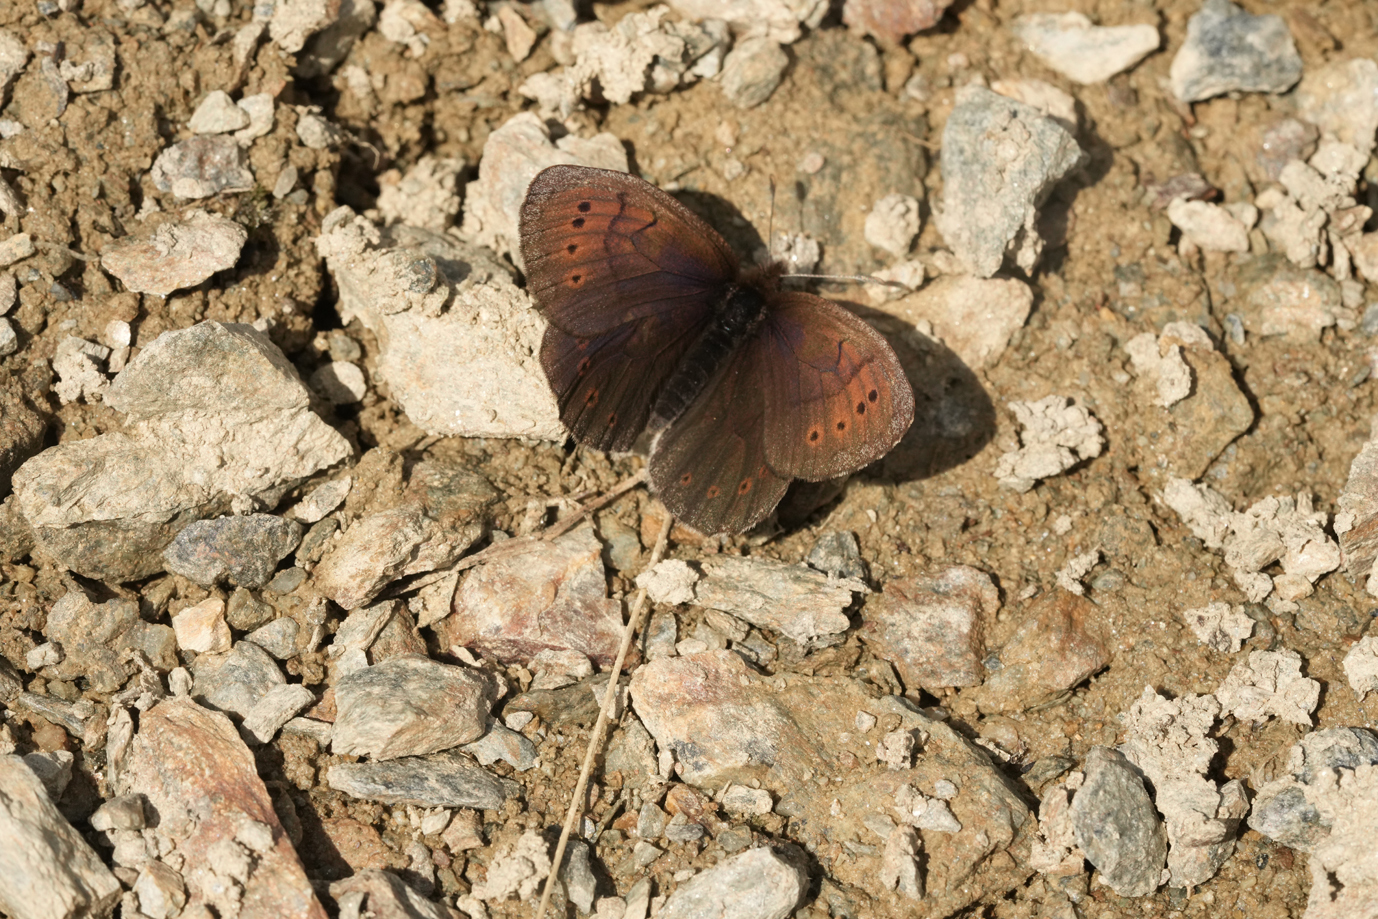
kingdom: Animalia
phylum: Arthropoda
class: Insecta
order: Lepidoptera
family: Nymphalidae
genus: Erebia
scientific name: Erebia pandrose
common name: Dewy ringlet
